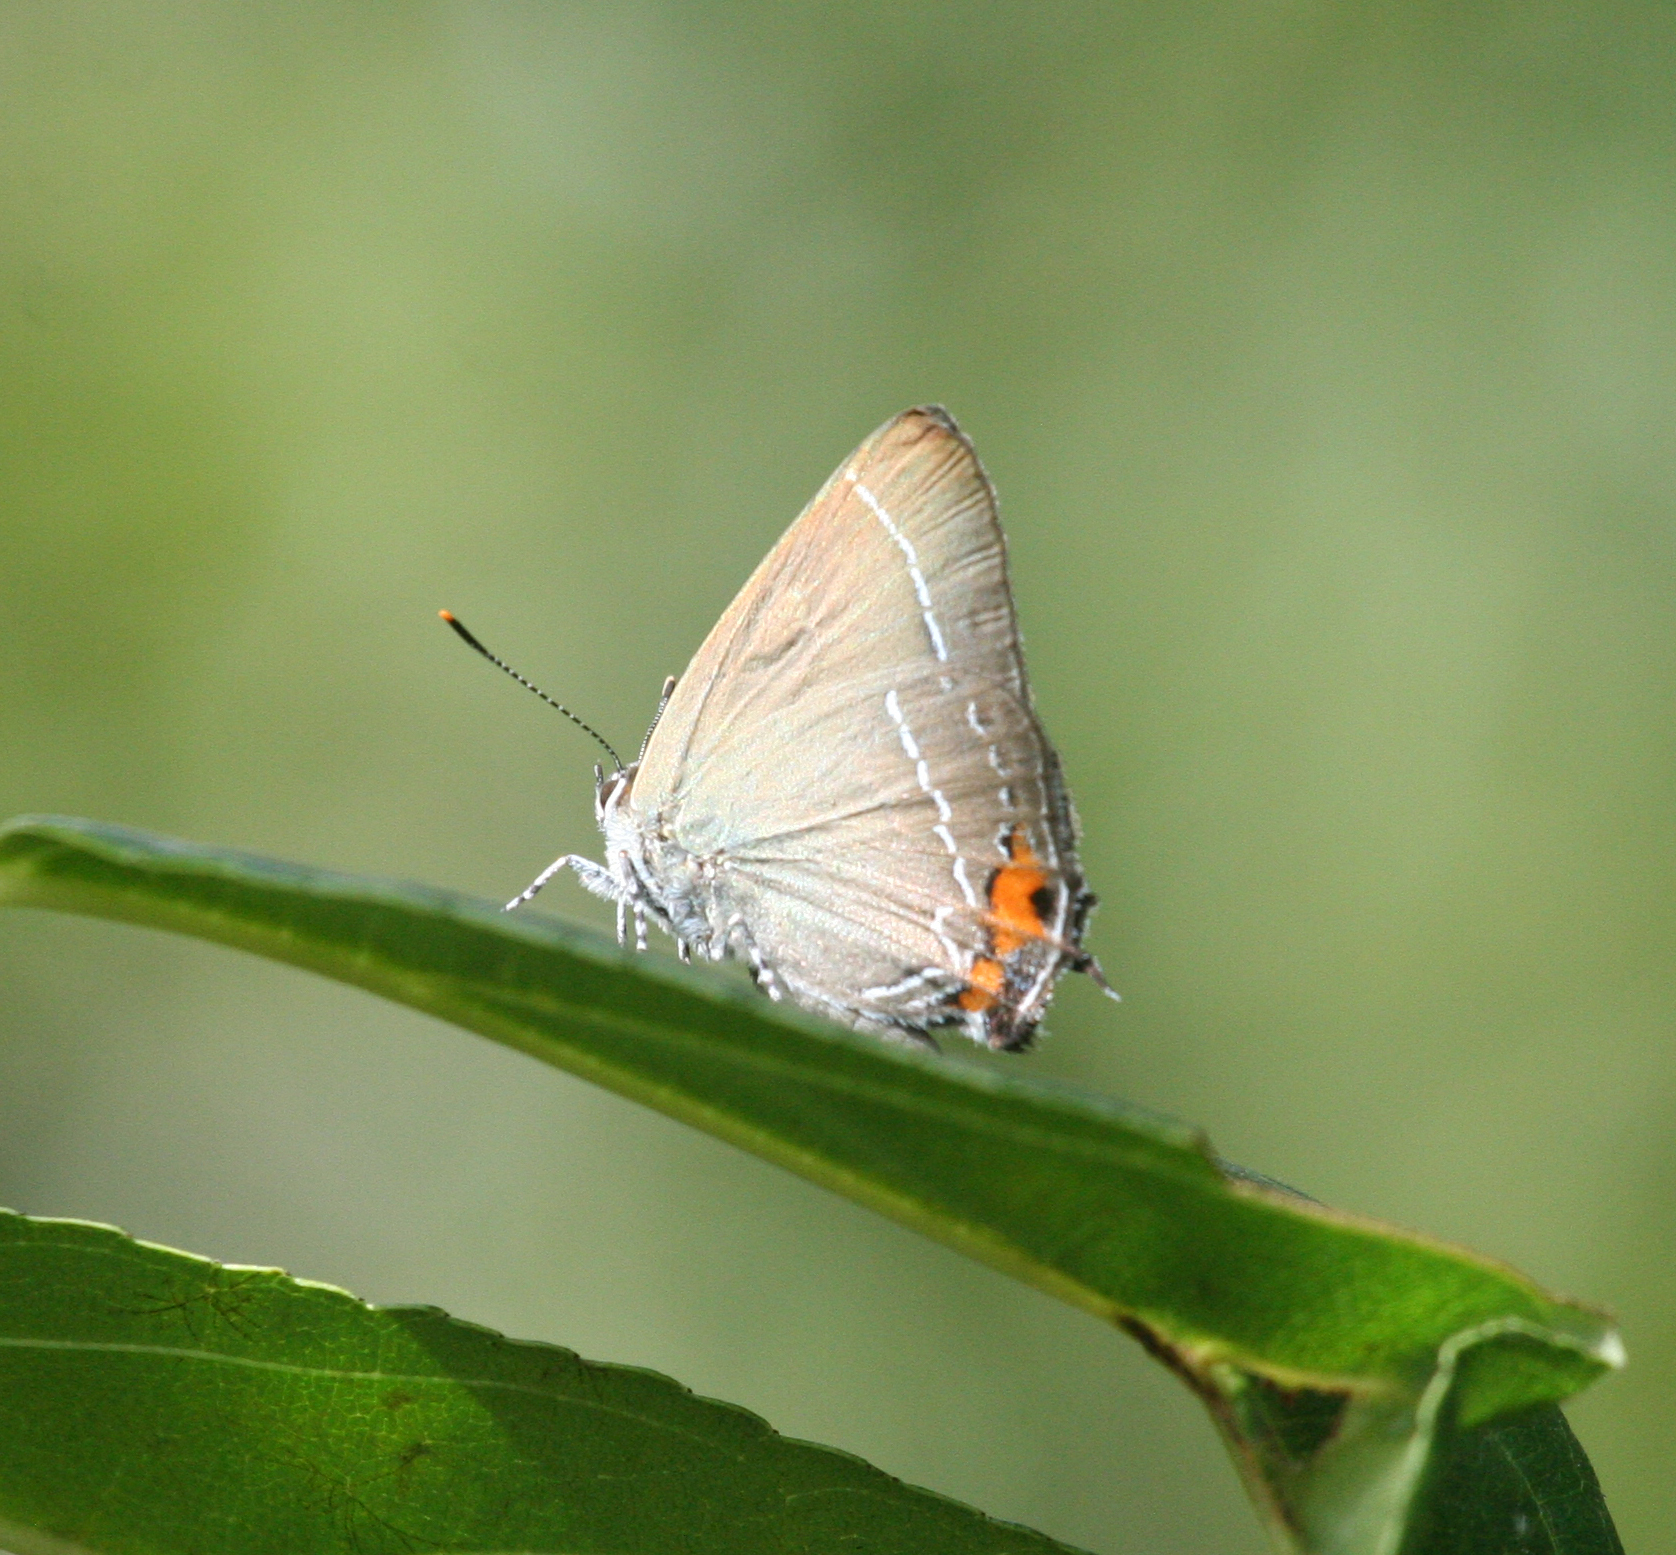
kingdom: Animalia
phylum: Arthropoda
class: Insecta
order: Lepidoptera
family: Lycaenidae
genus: Satyrium
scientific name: Satyrium eximium
